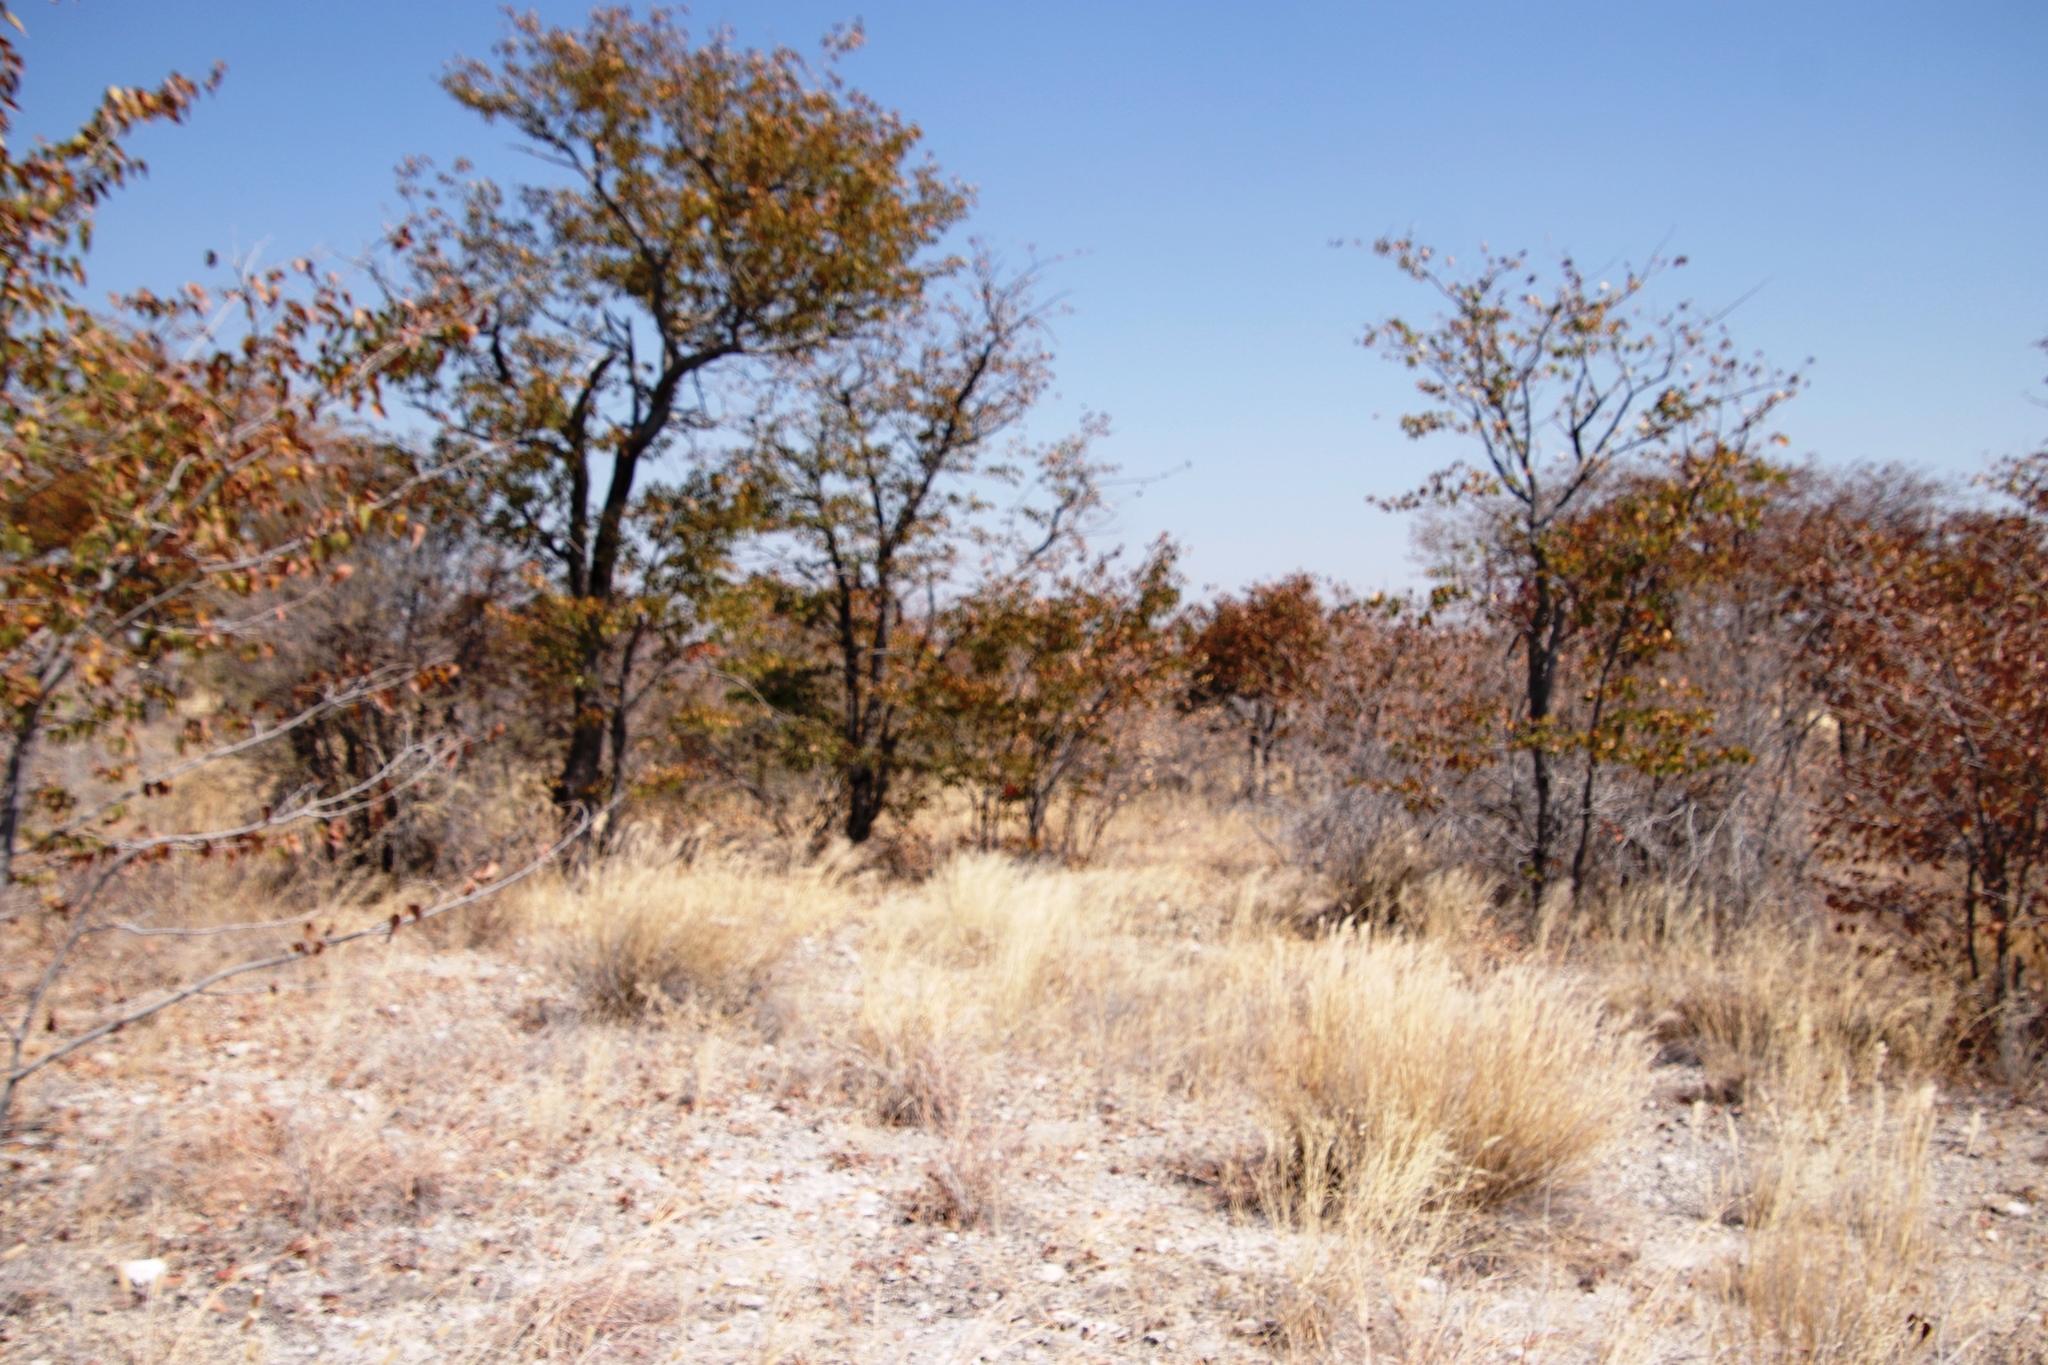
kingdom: Plantae
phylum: Tracheophyta
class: Magnoliopsida
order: Fabales
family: Fabaceae
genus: Colophospermum
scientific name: Colophospermum mopane
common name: Mopane
